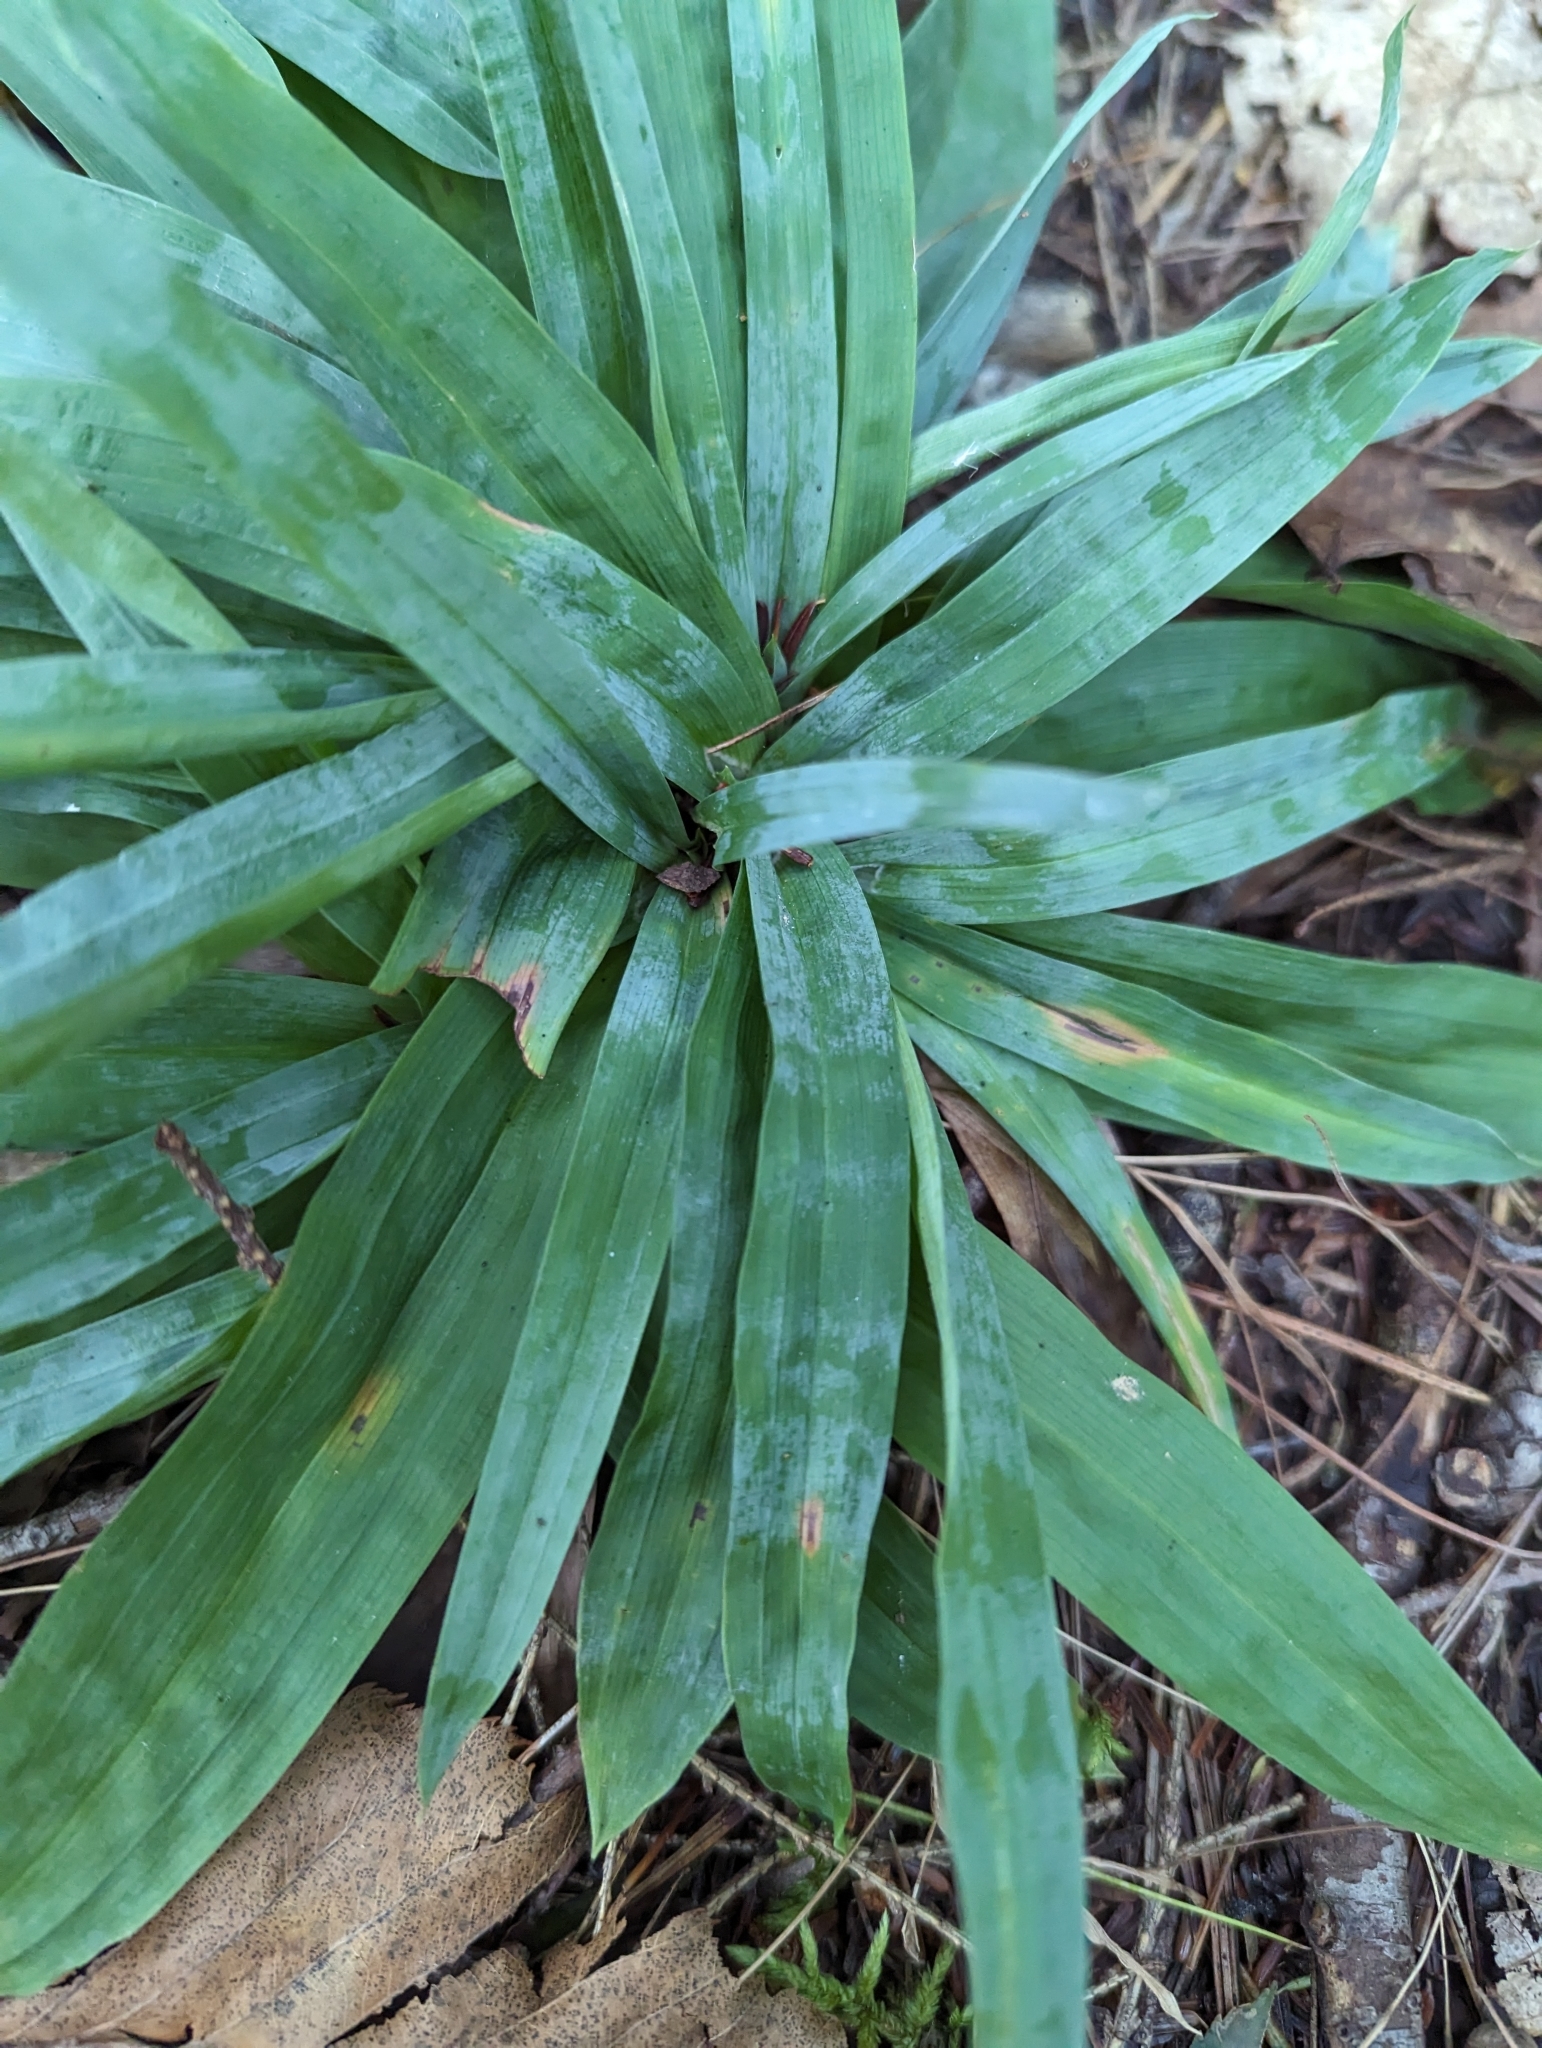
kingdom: Plantae
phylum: Tracheophyta
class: Liliopsida
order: Poales
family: Cyperaceae
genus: Carex
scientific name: Carex platyphylla
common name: Broad-leaved sedge
